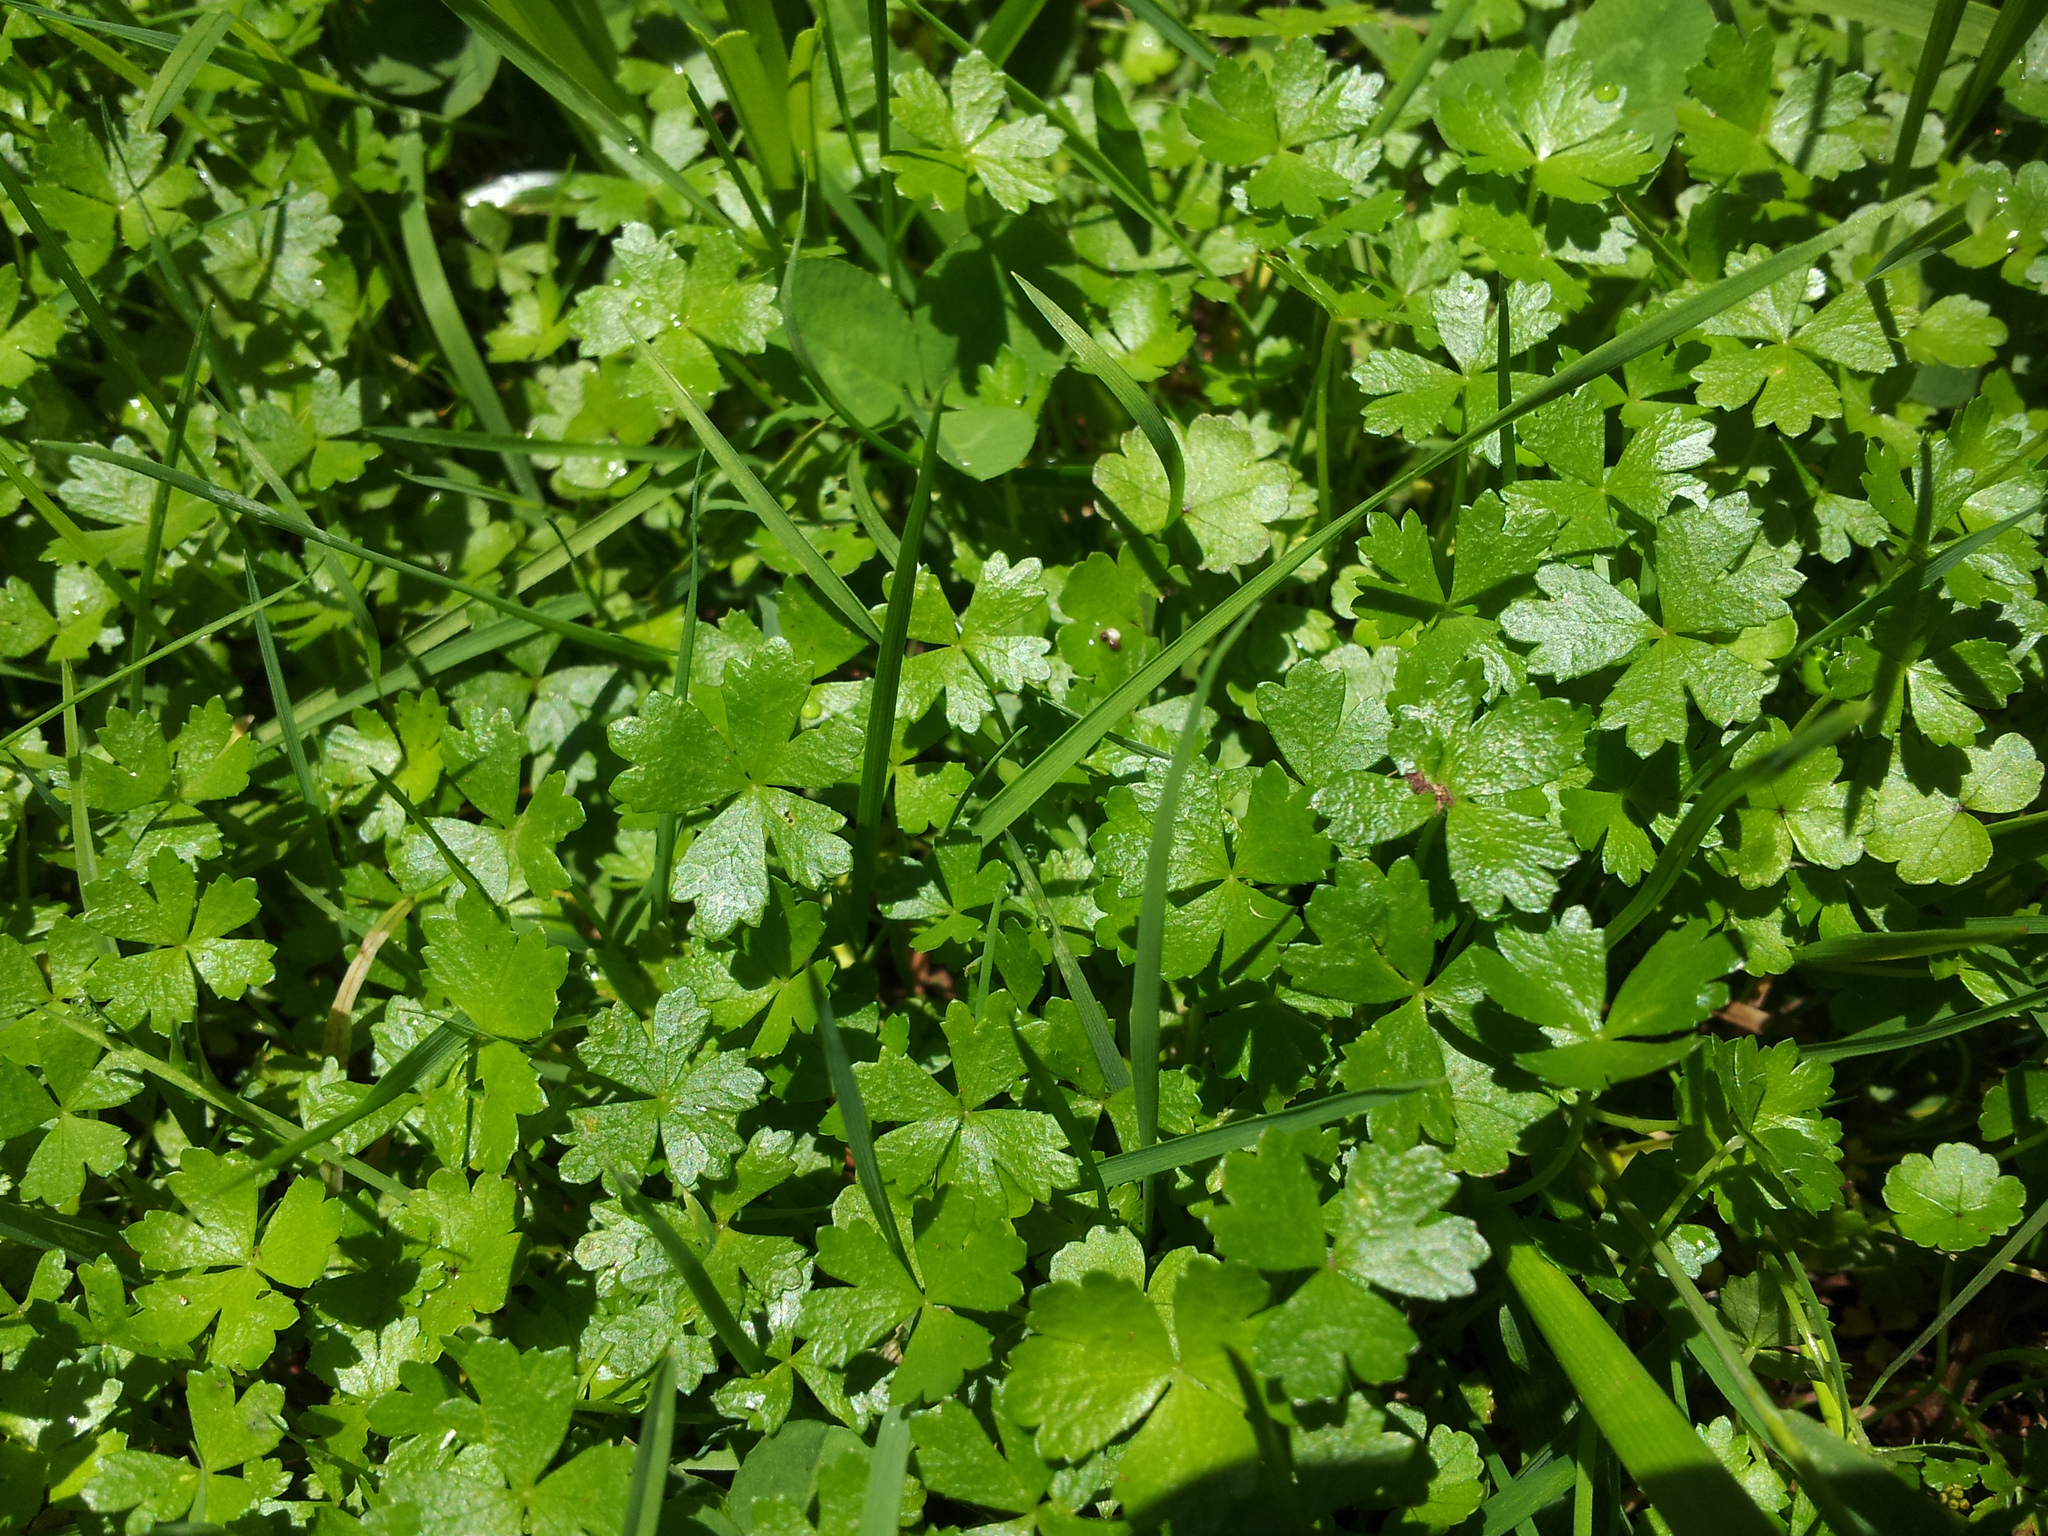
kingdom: Plantae
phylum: Tracheophyta
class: Magnoliopsida
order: Apiales
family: Araliaceae
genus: Hydrocotyle
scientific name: Hydrocotyle tripartita
